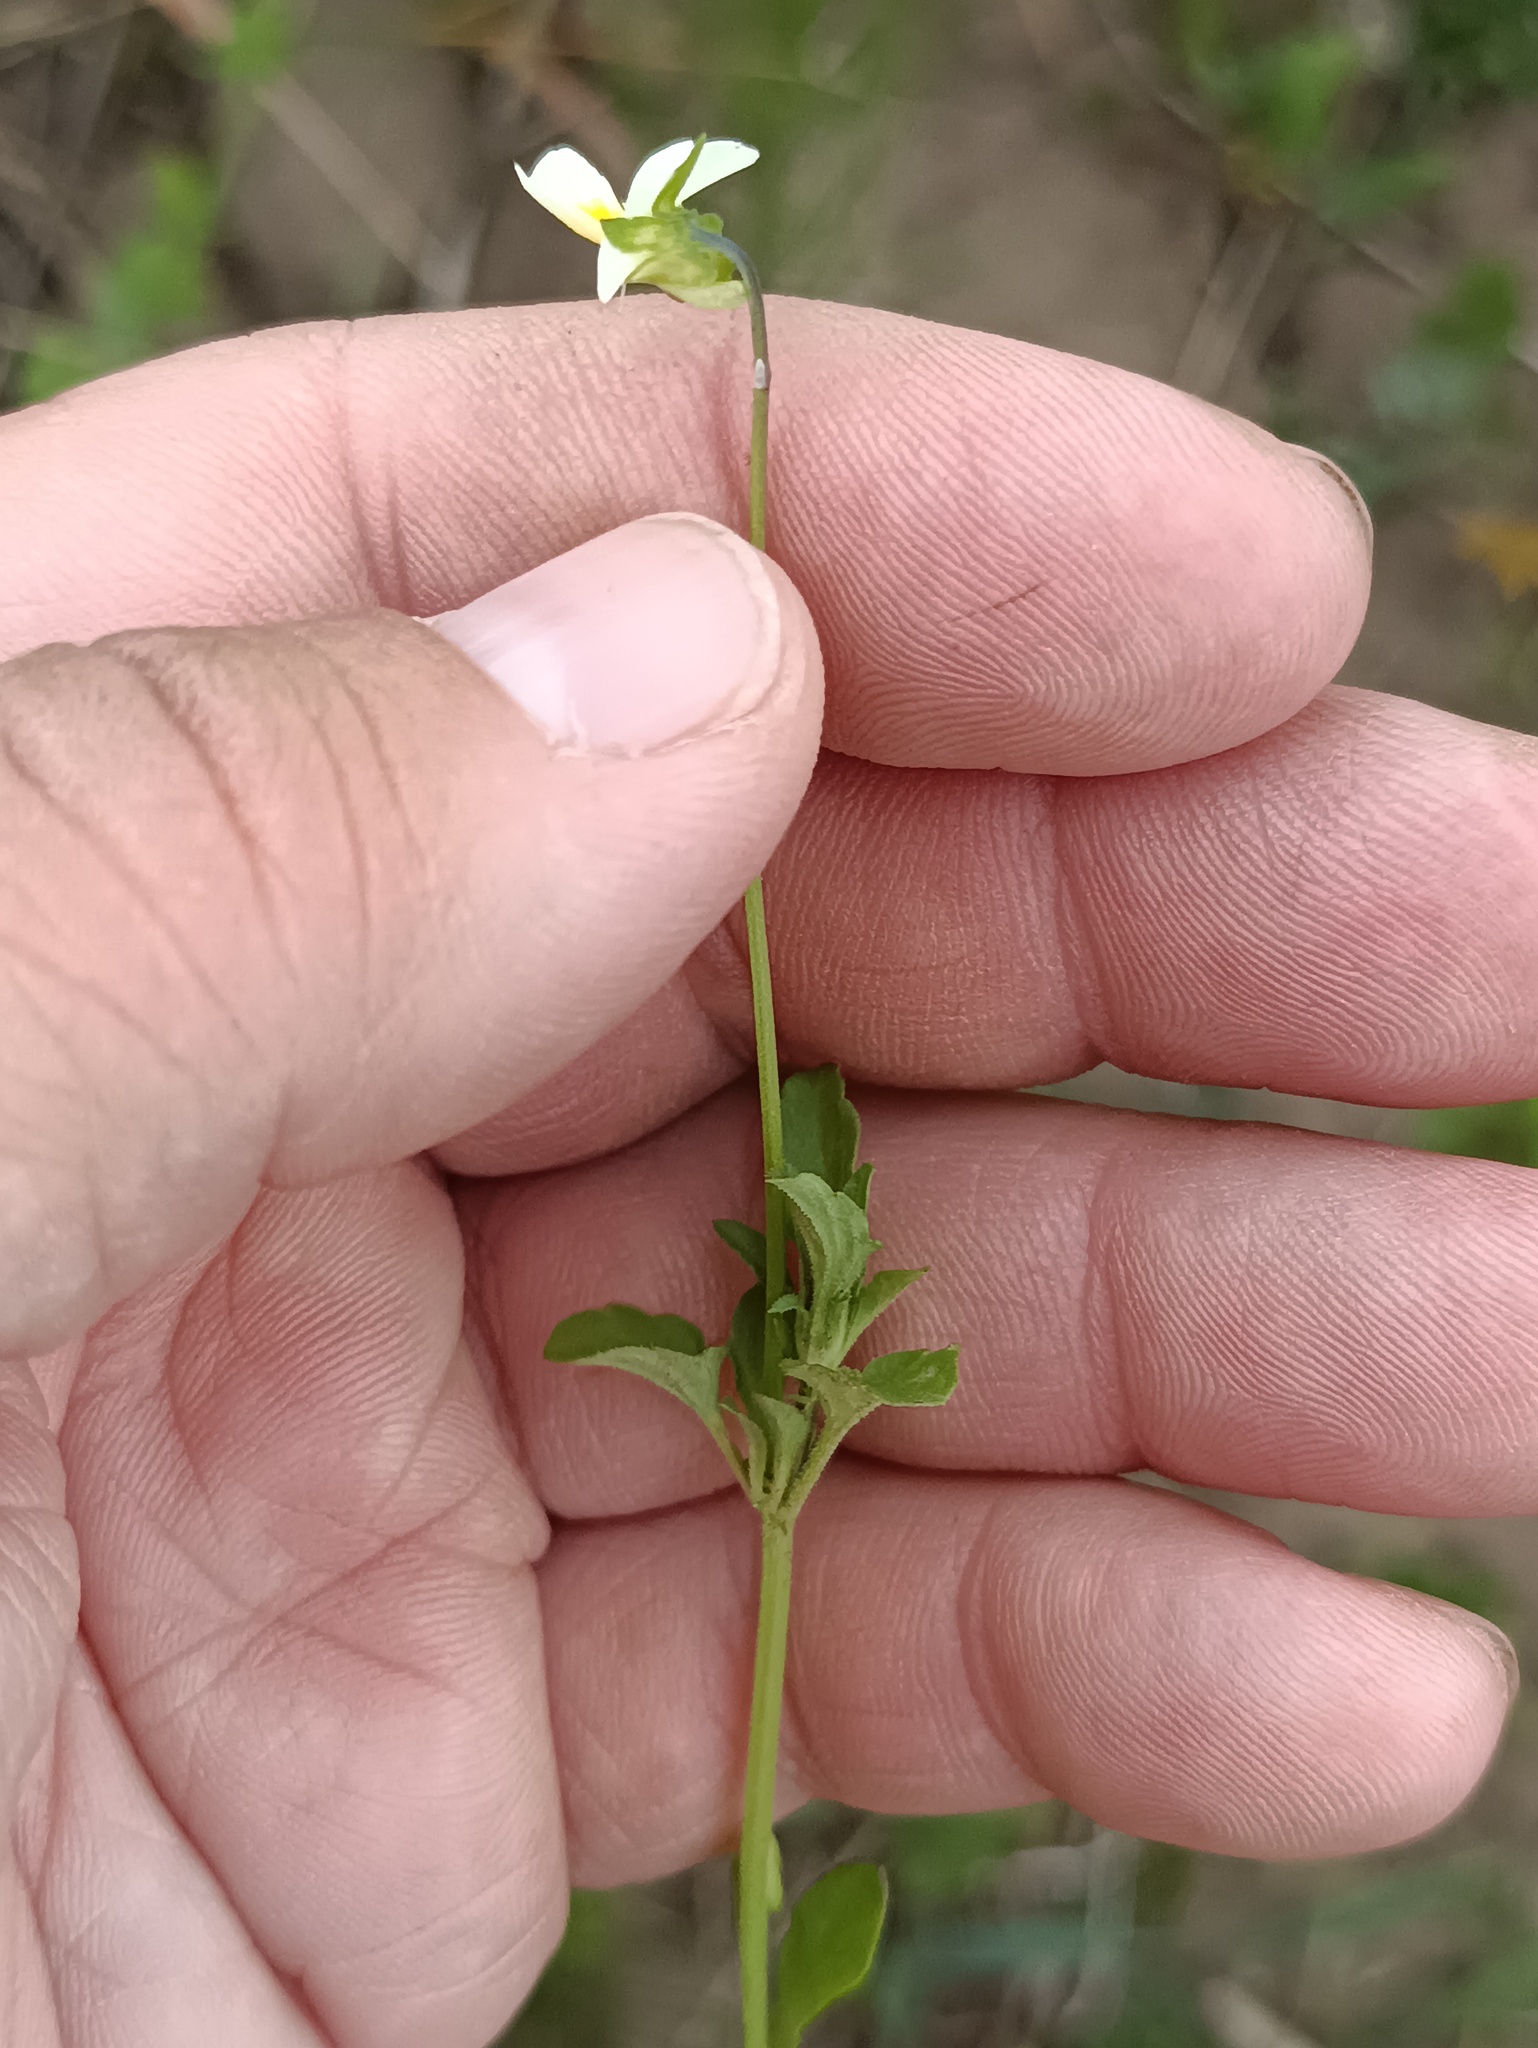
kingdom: Plantae
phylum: Tracheophyta
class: Magnoliopsida
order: Malpighiales
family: Violaceae
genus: Viola
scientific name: Viola arvensis
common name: Field pansy
